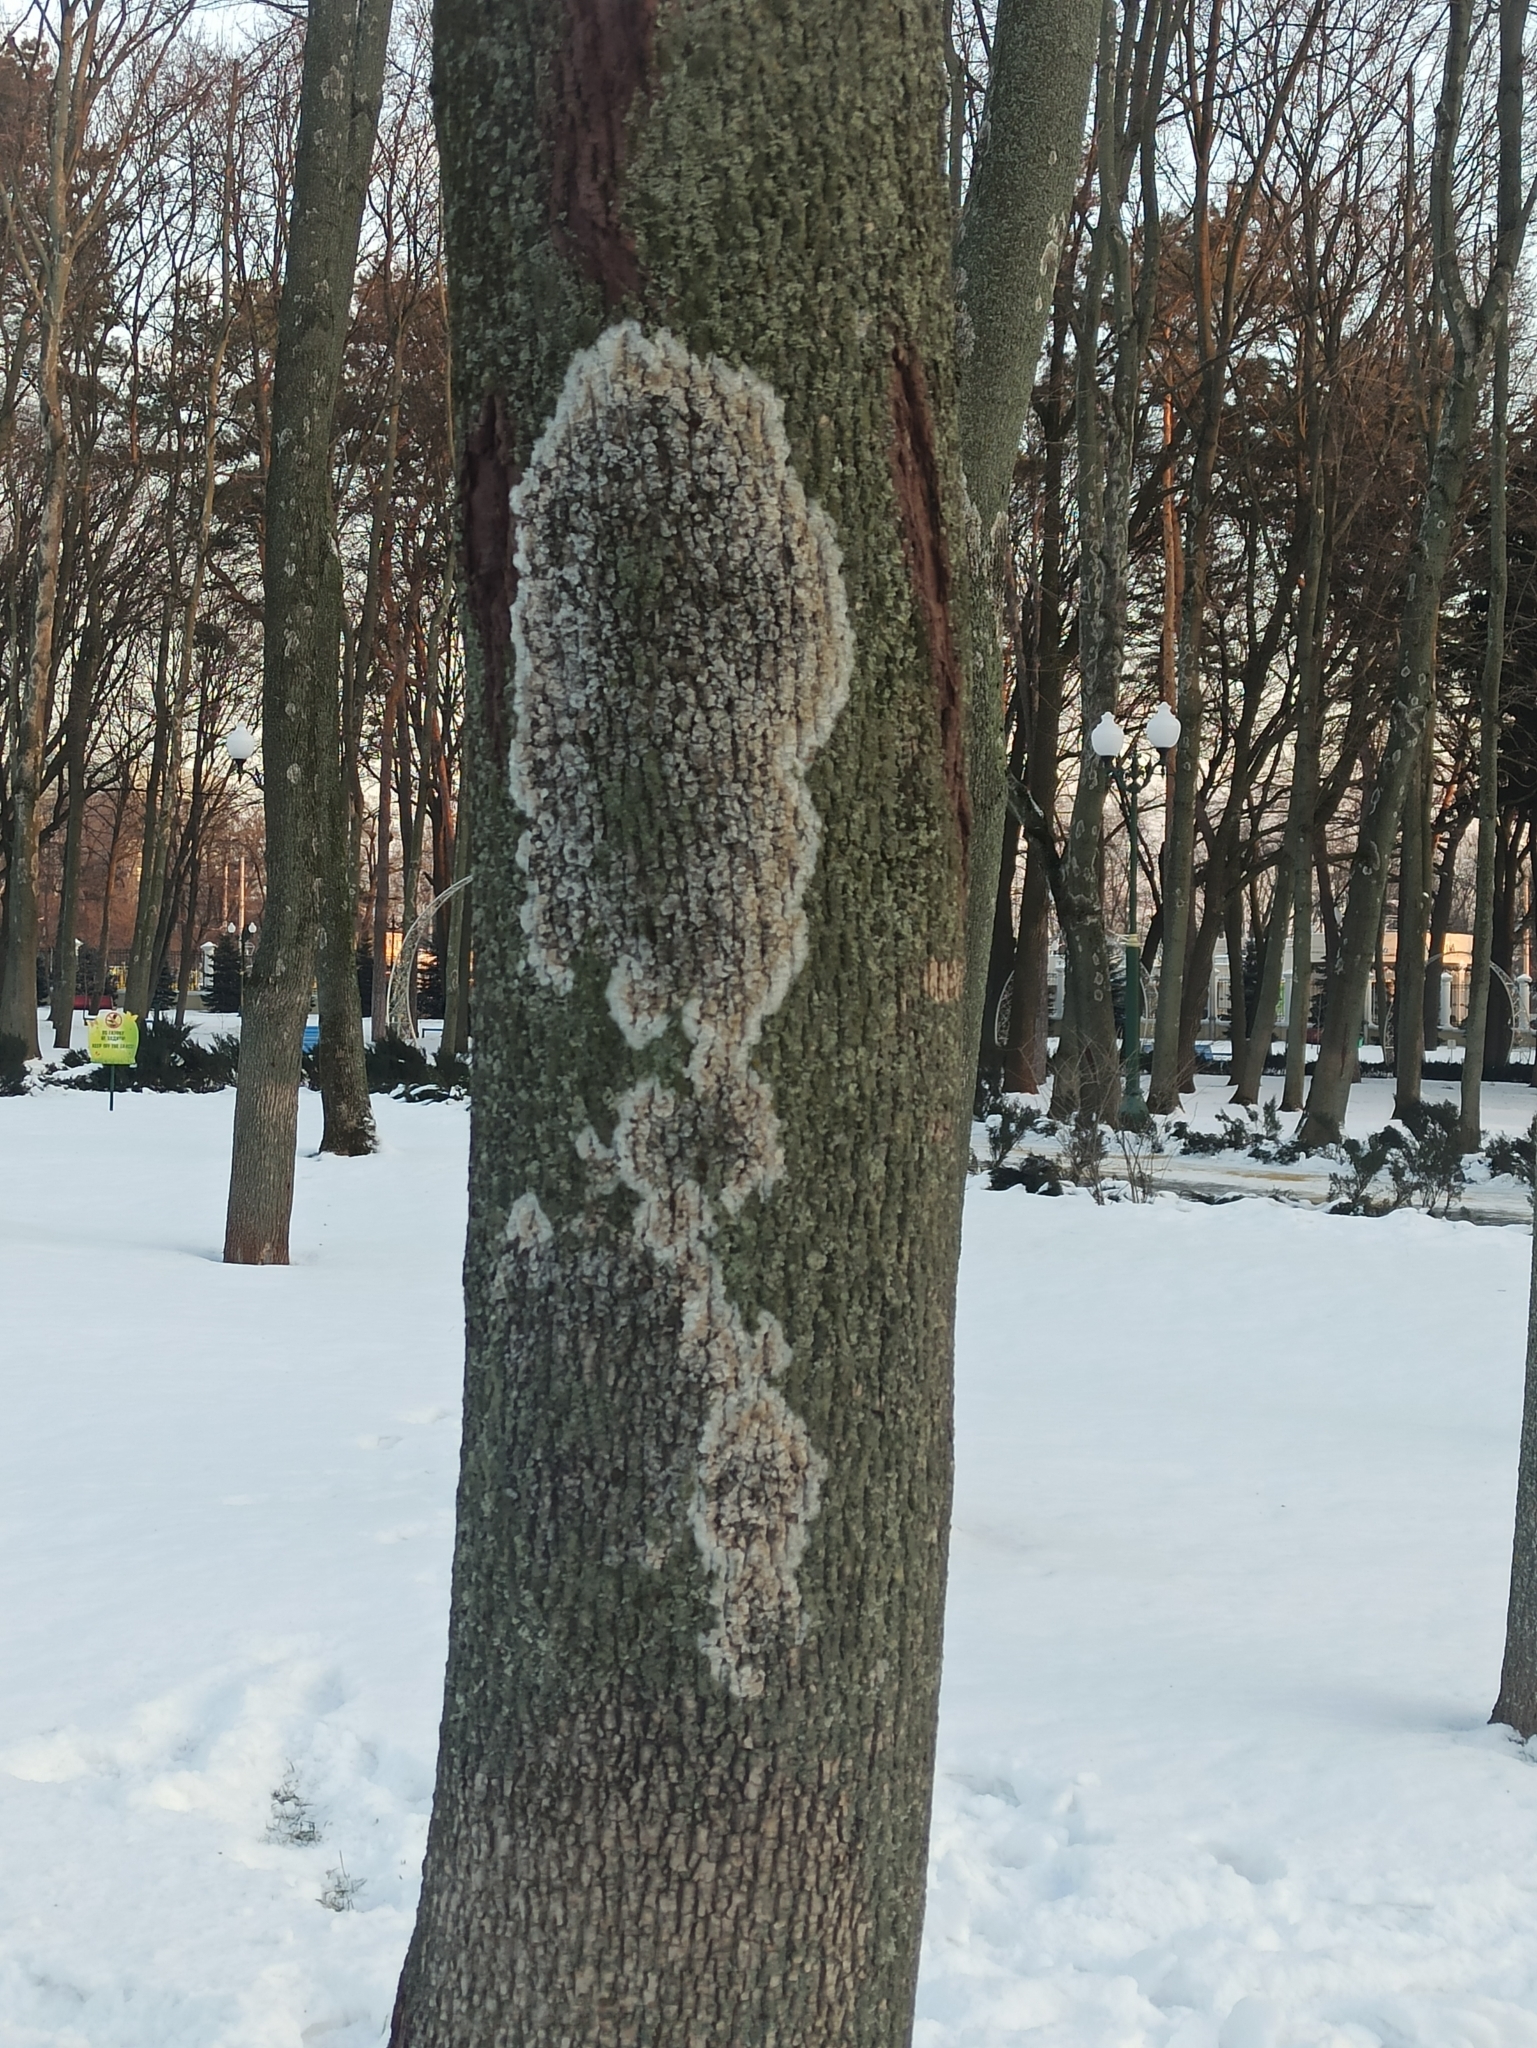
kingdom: Fungi
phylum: Basidiomycota
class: Agaricomycetes
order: Atheliales
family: Atheliaceae
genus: Athelia
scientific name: Athelia arachnoidea
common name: Candelabra duster
